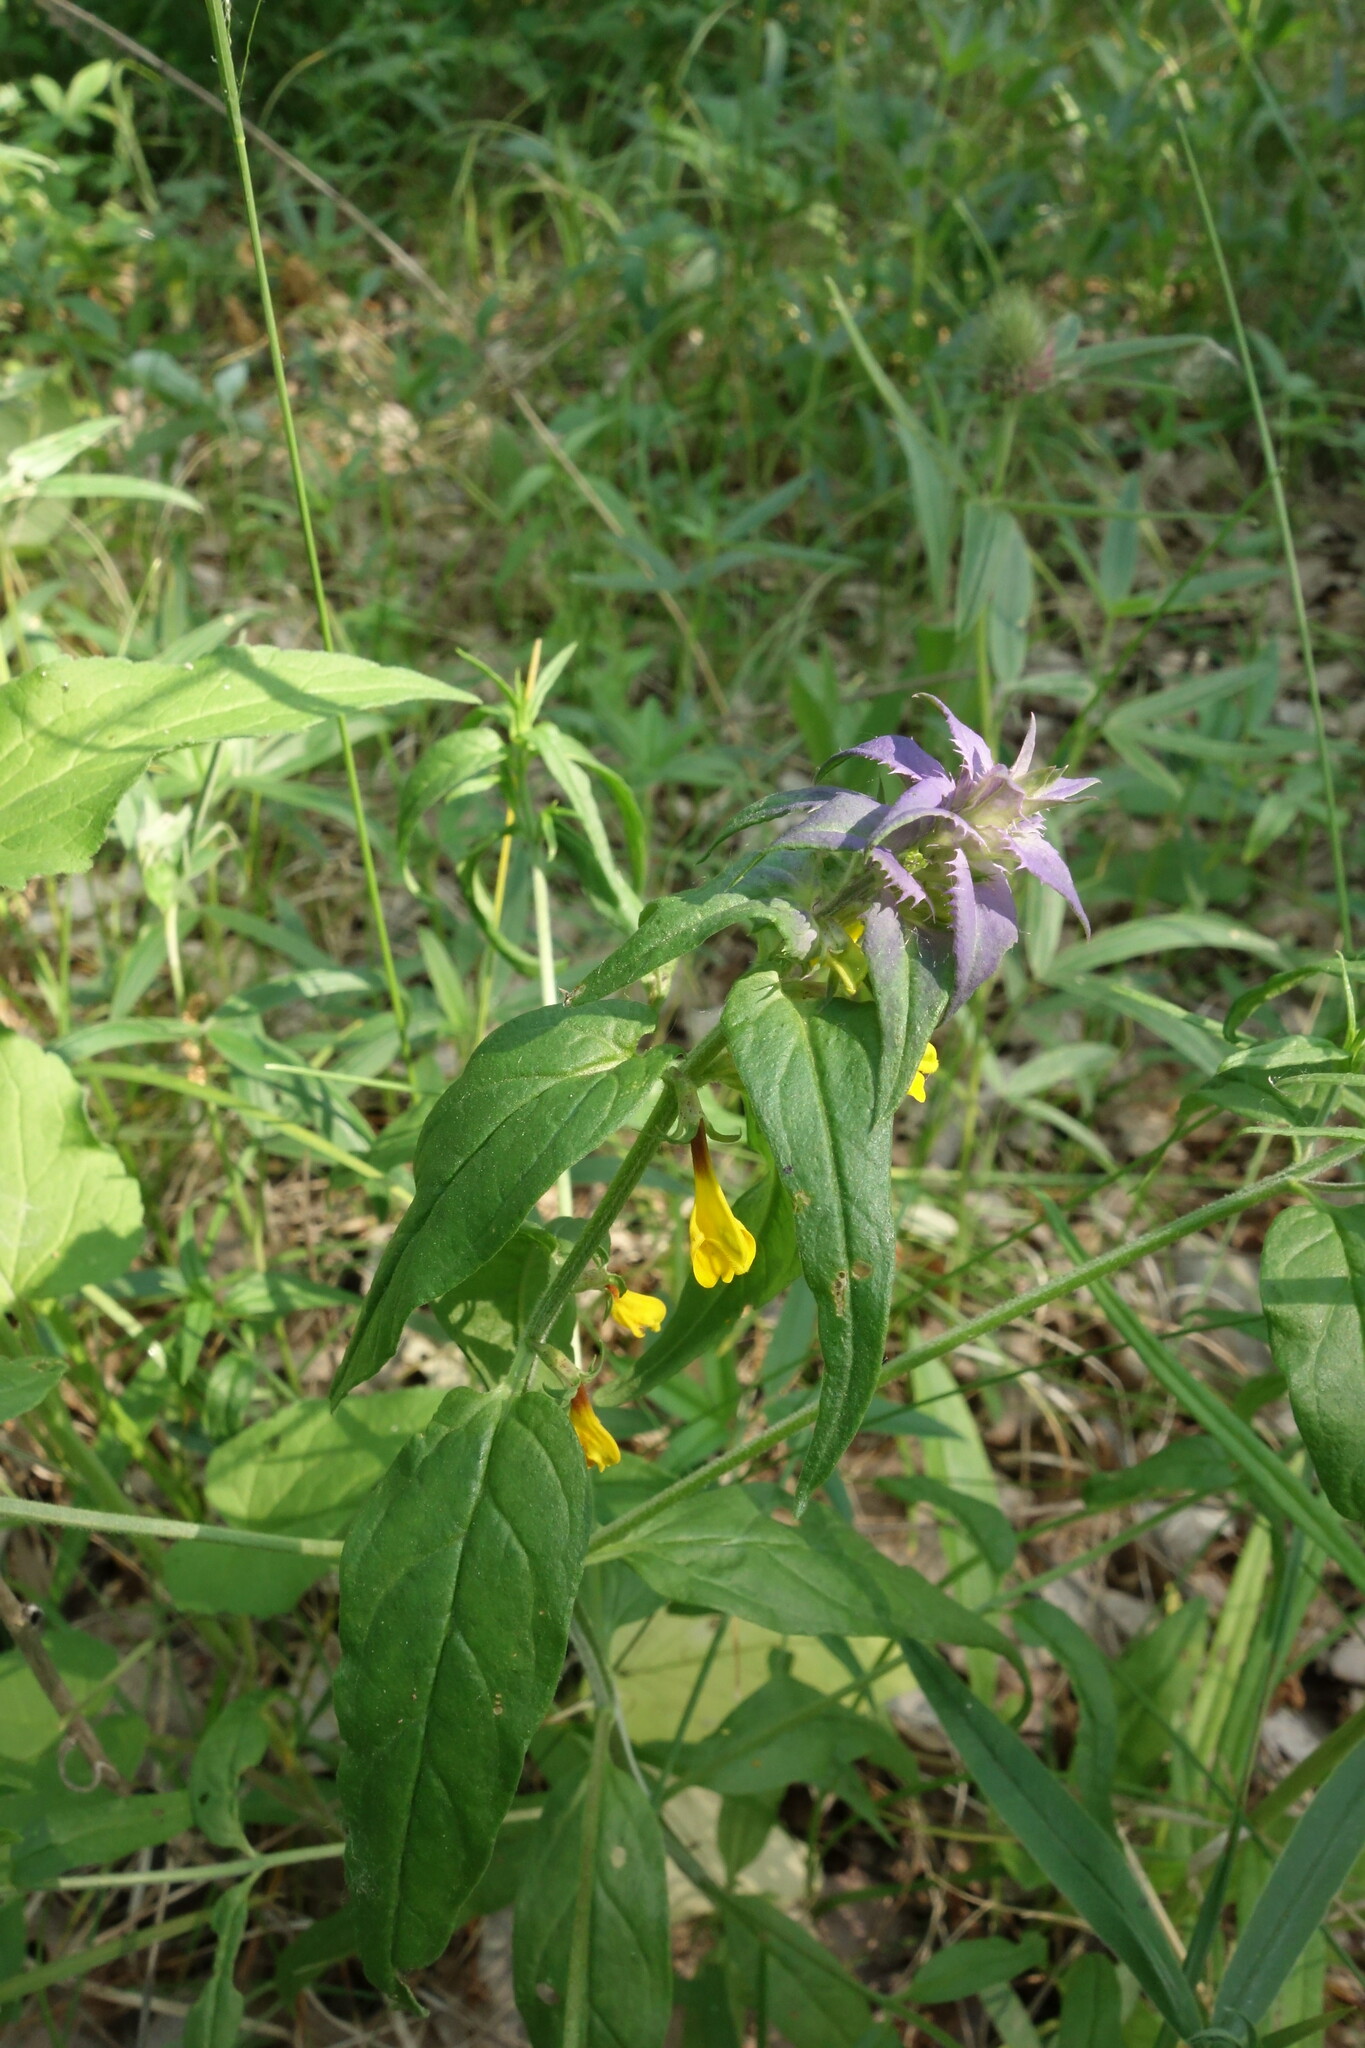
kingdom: Plantae
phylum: Tracheophyta
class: Magnoliopsida
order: Lamiales
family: Orobanchaceae
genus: Melampyrum
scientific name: Melampyrum nemorosum
